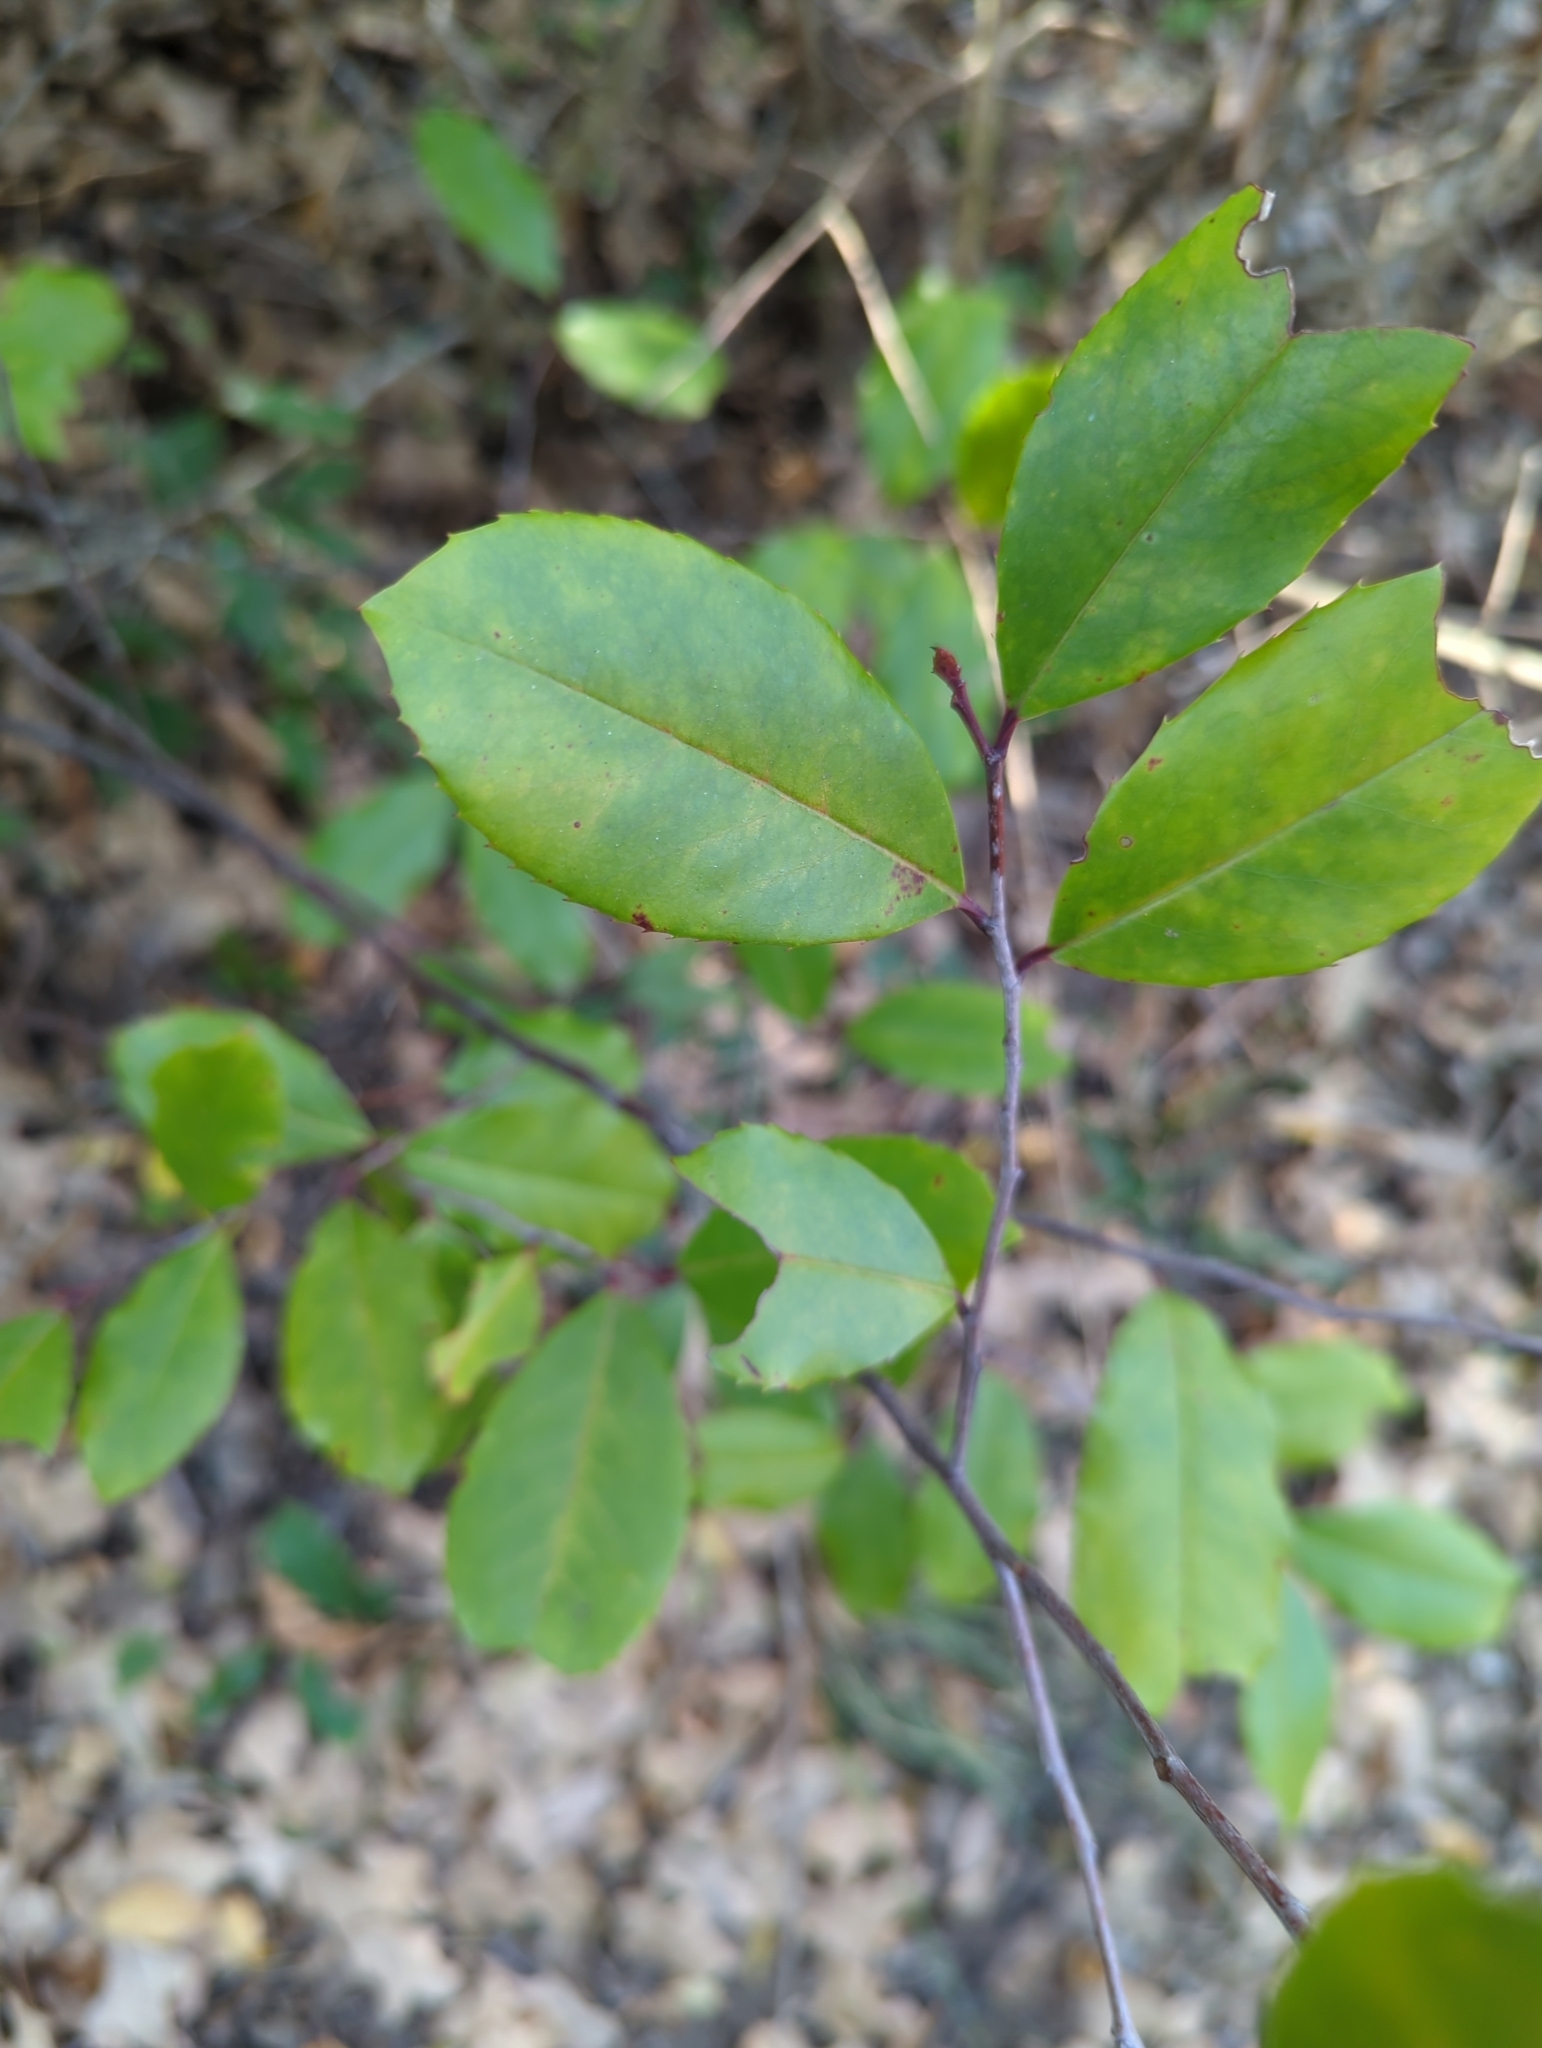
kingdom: Plantae
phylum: Tracheophyta
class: Magnoliopsida
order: Rosales
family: Rosaceae
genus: Prunus
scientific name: Prunus caroliniana
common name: Carolina laurel cherry
